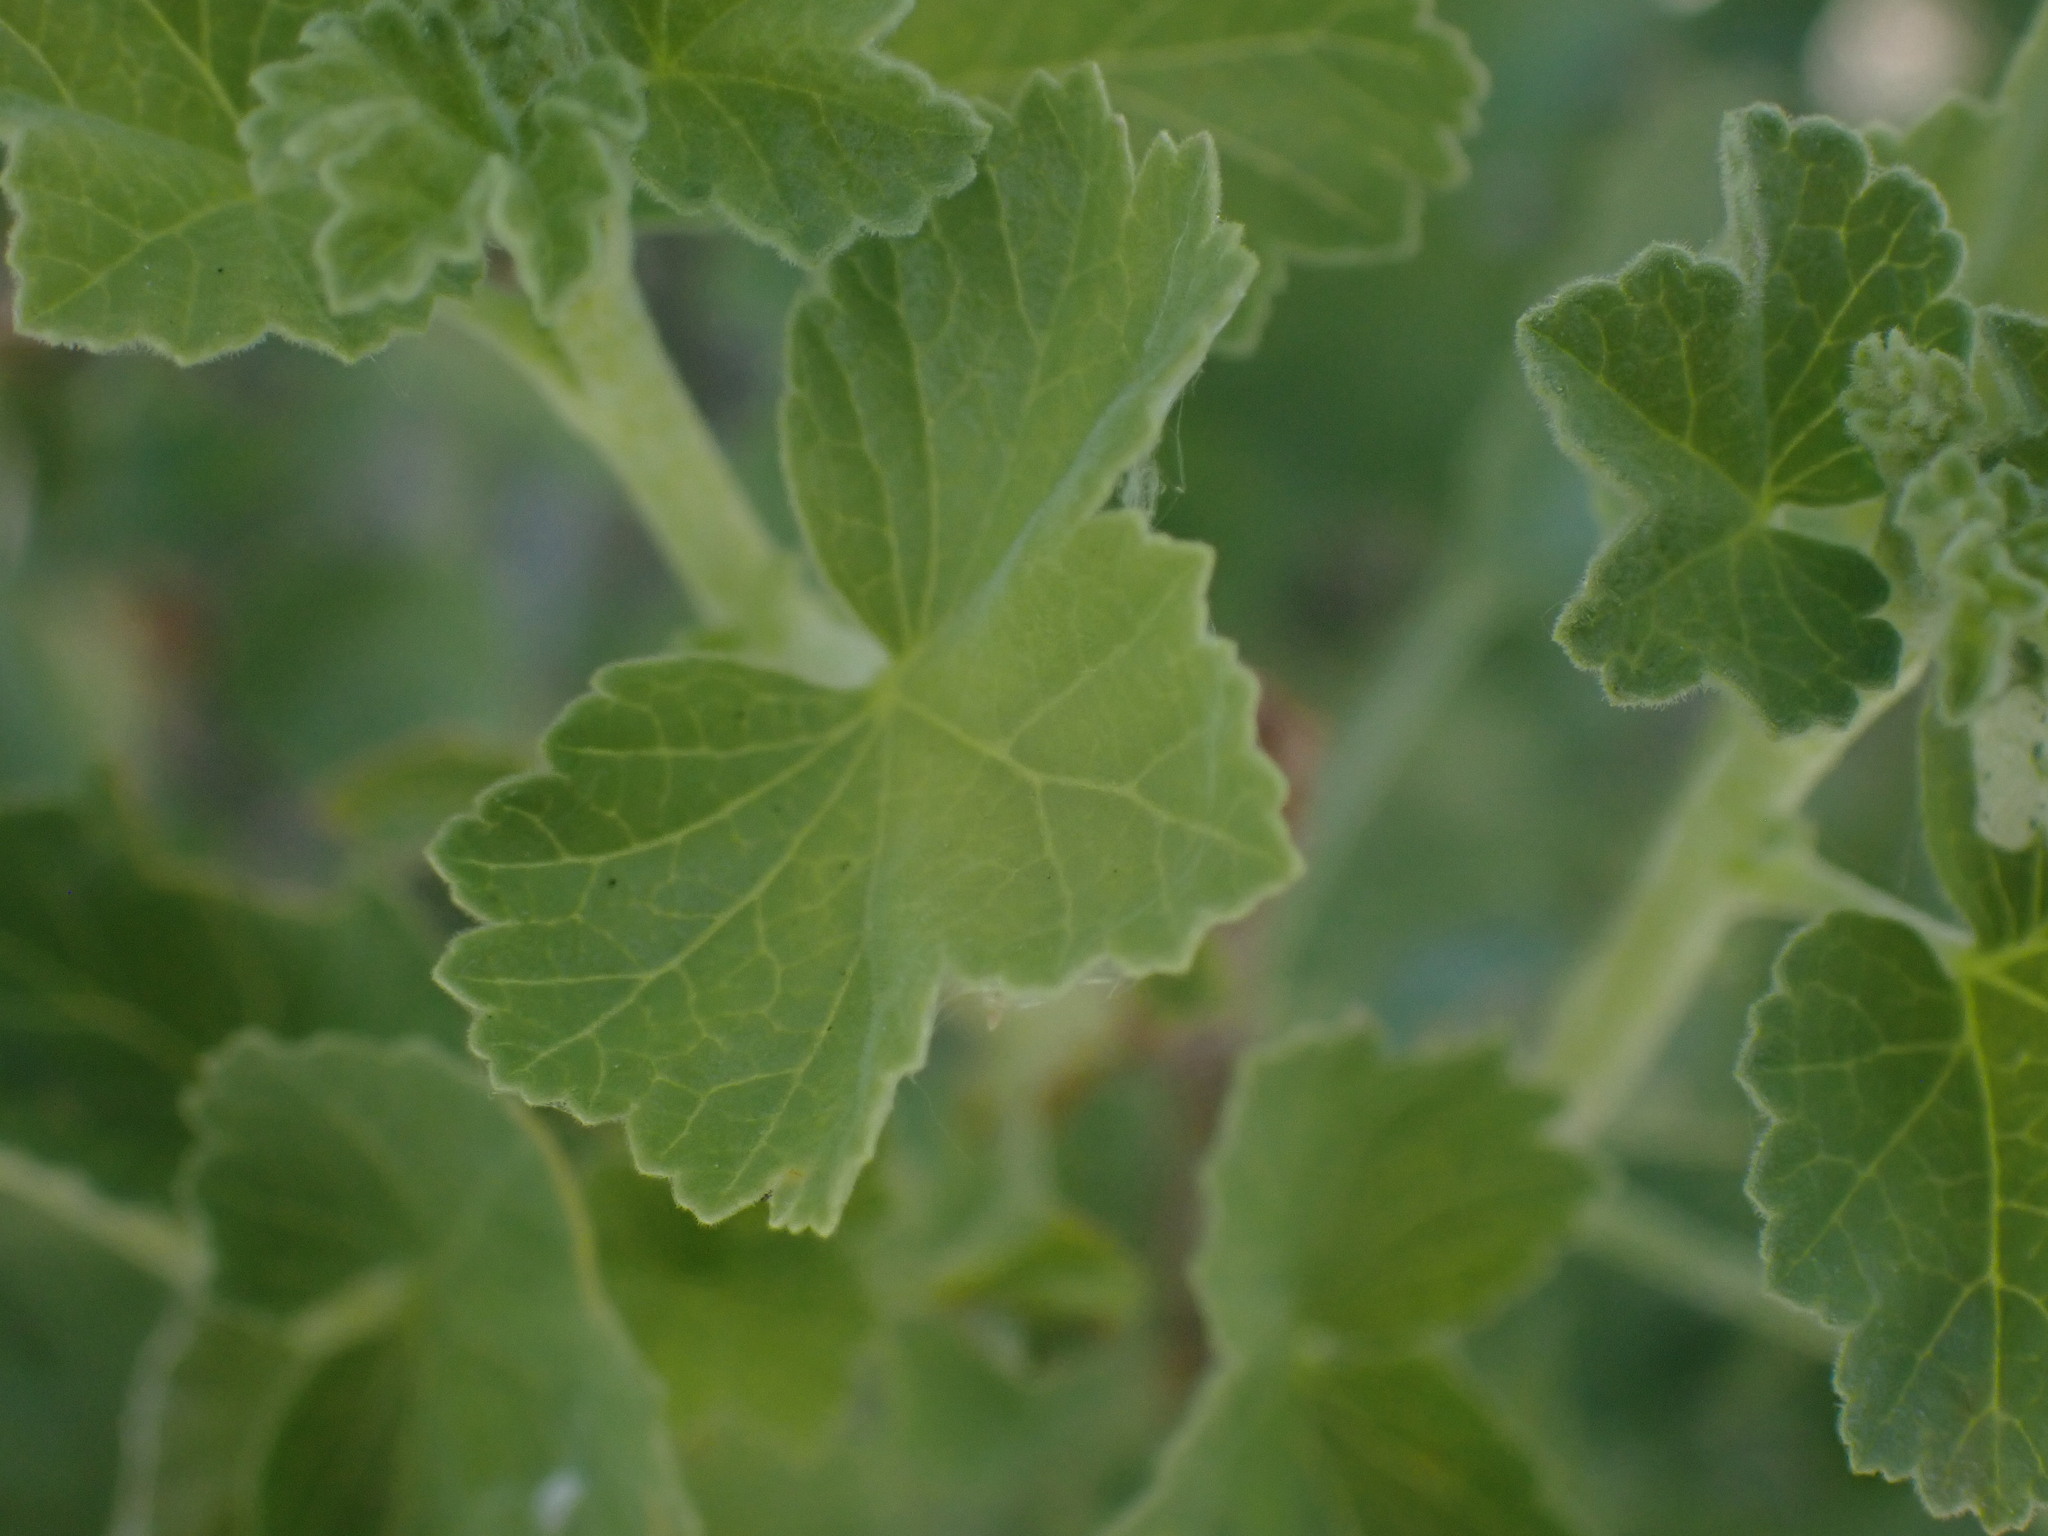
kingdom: Plantae
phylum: Tracheophyta
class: Magnoliopsida
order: Saxifragales
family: Grossulariaceae
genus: Ribes
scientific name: Ribes cereum
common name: Wax currant
